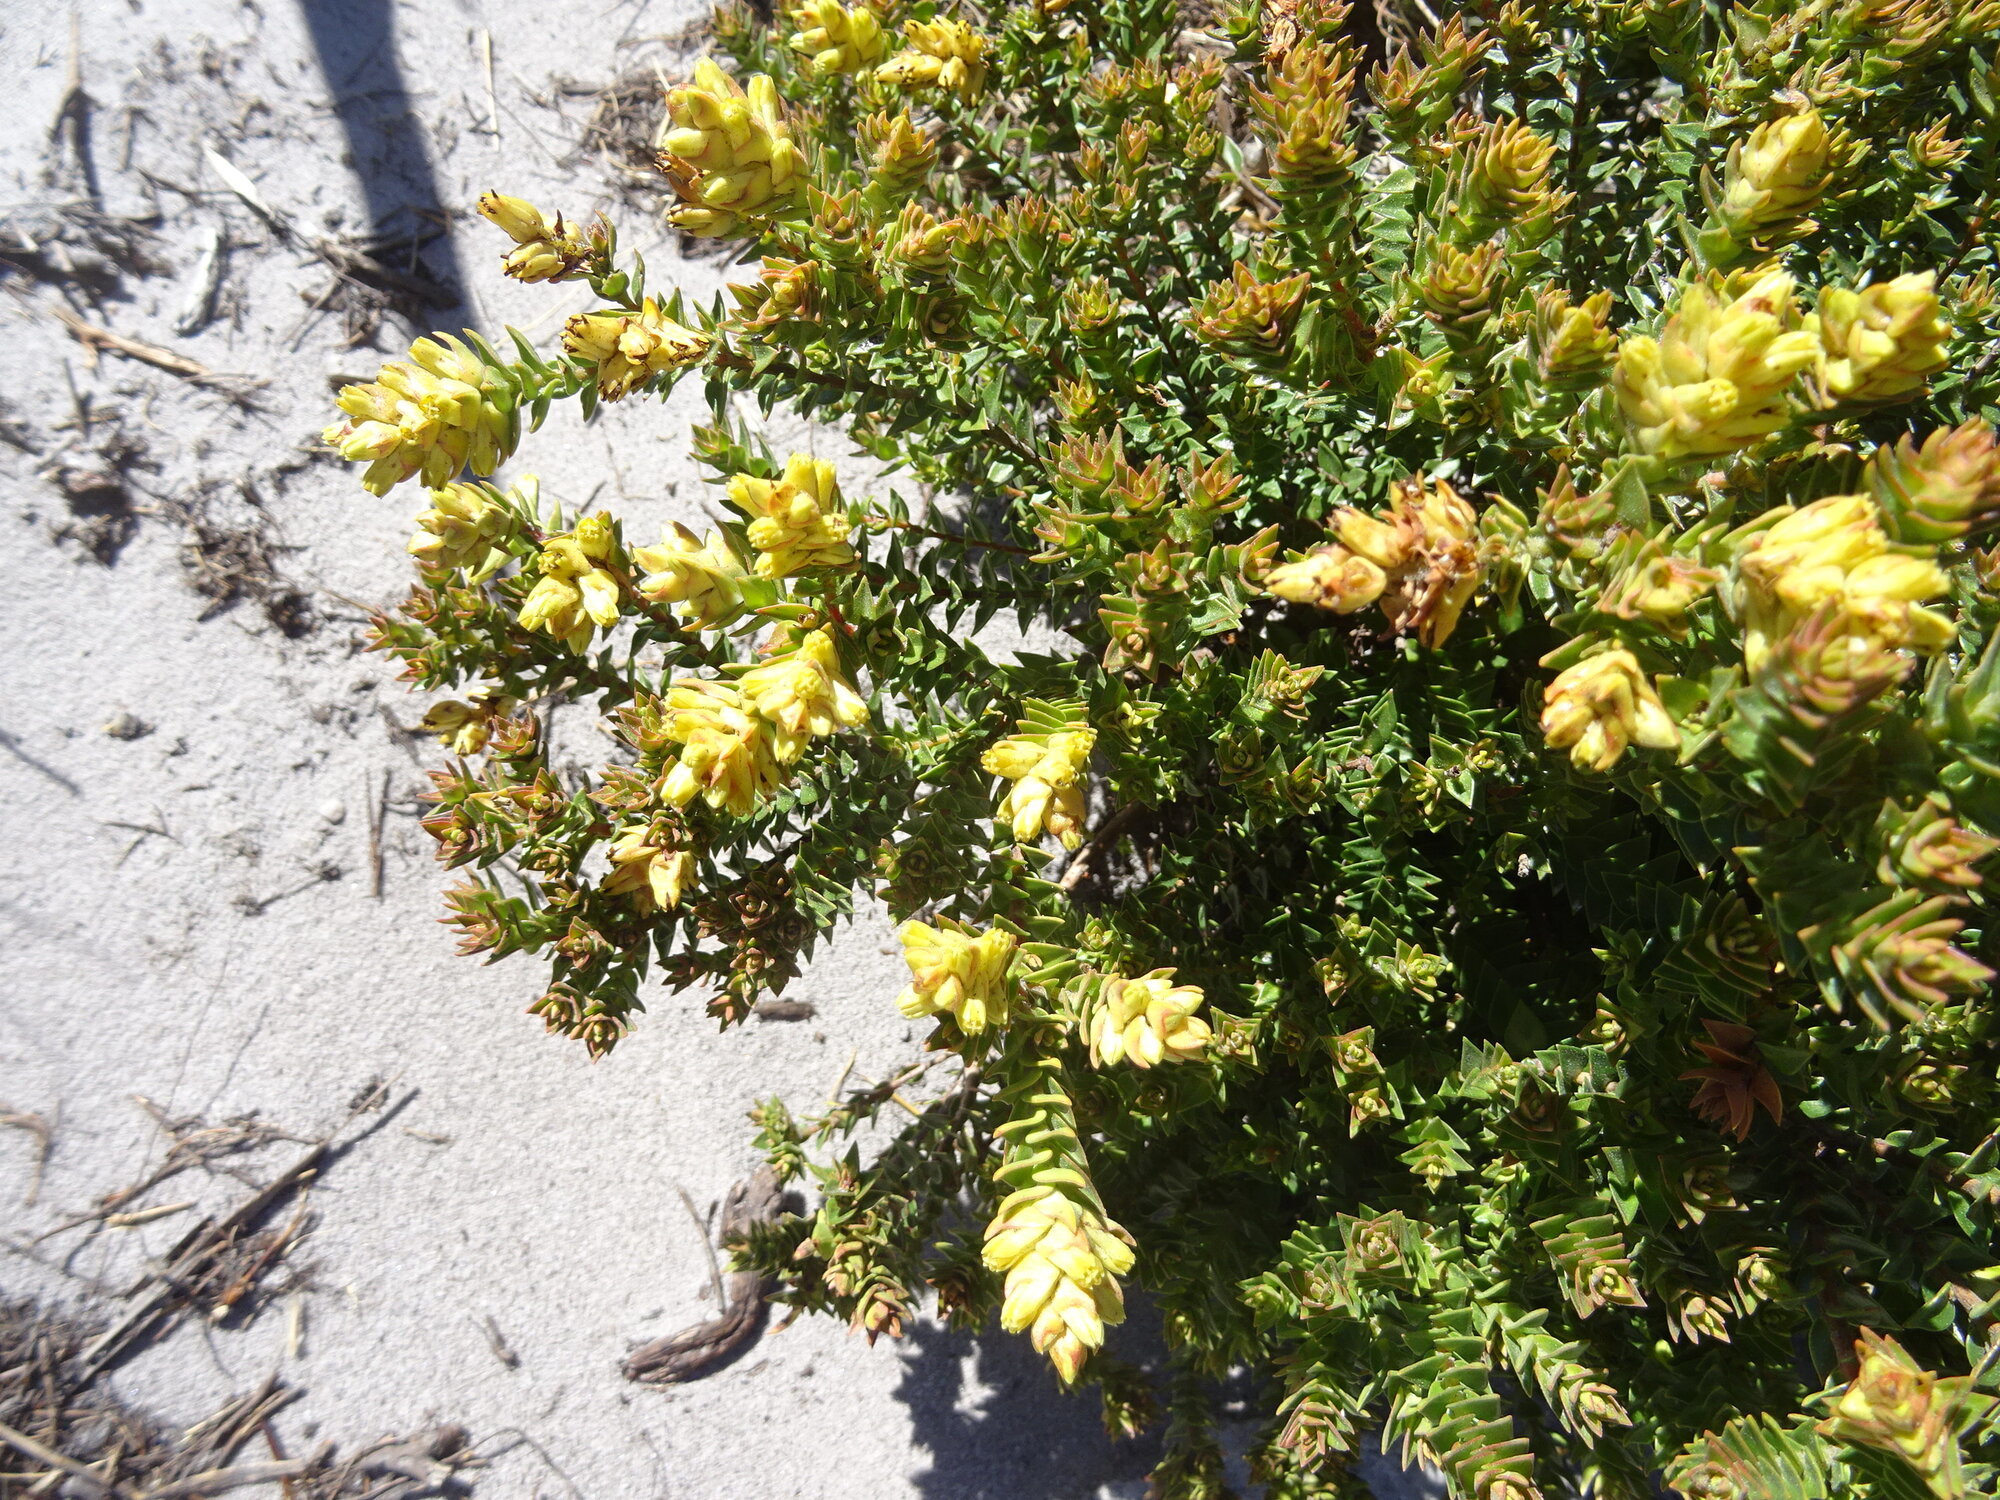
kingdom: Plantae
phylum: Tracheophyta
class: Magnoliopsida
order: Myrtales
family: Penaeaceae
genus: Penaea
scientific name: Penaea mucronata
